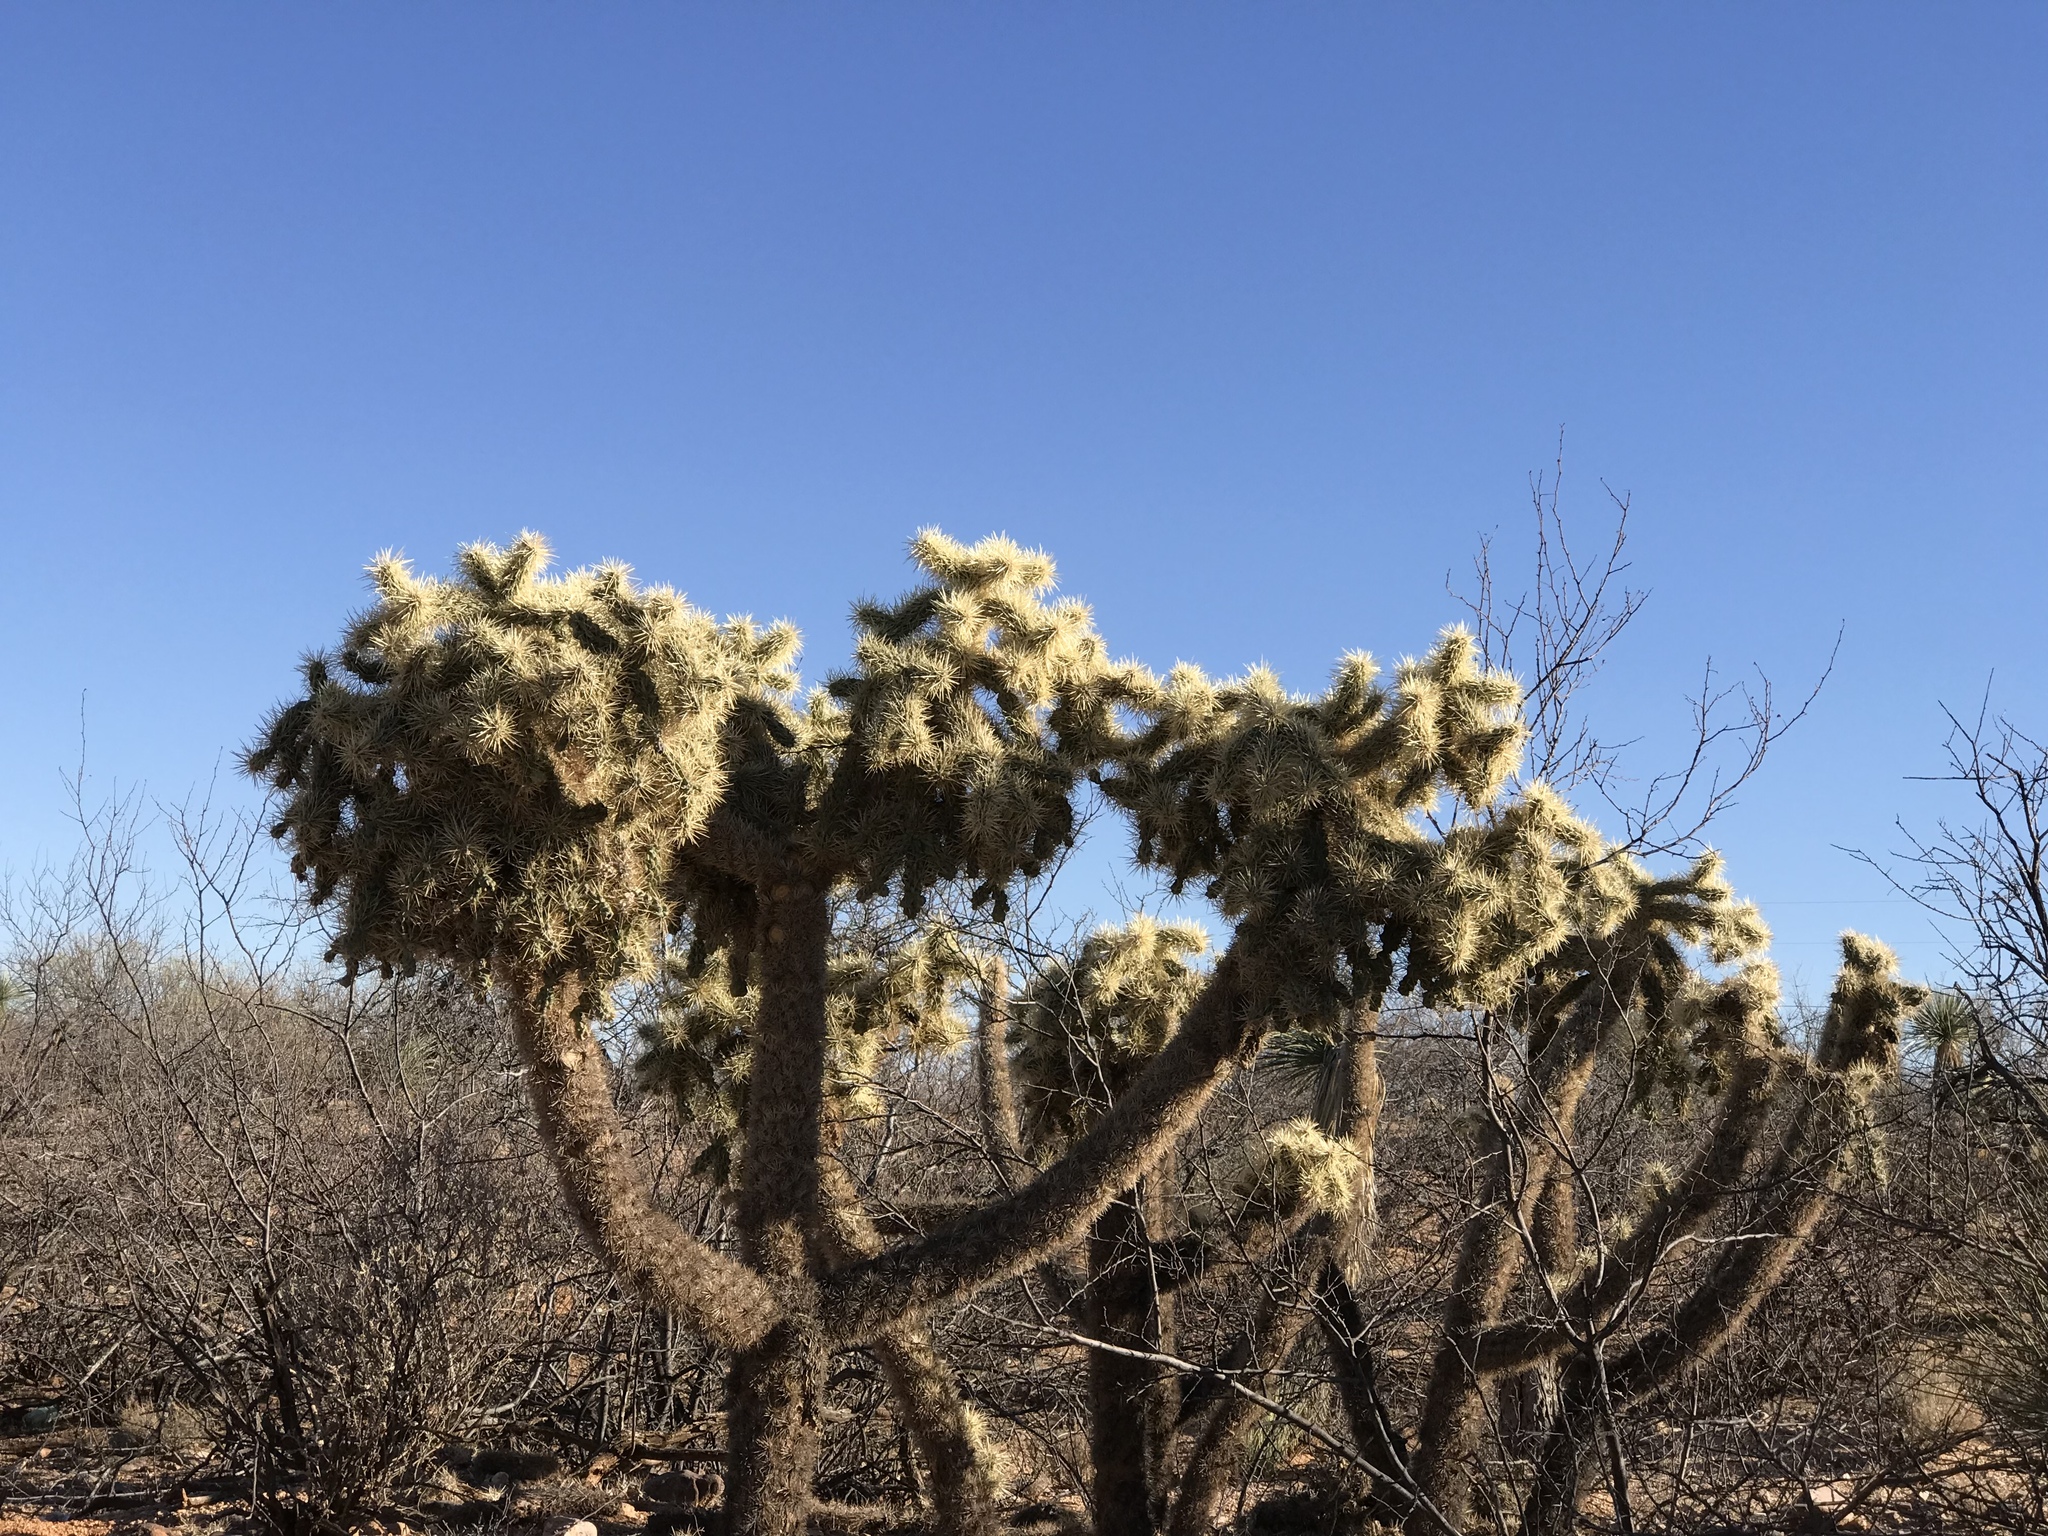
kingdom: Plantae
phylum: Tracheophyta
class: Magnoliopsida
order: Caryophyllales
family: Cactaceae
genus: Cylindropuntia
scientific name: Cylindropuntia fulgida
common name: Jumping cholla
